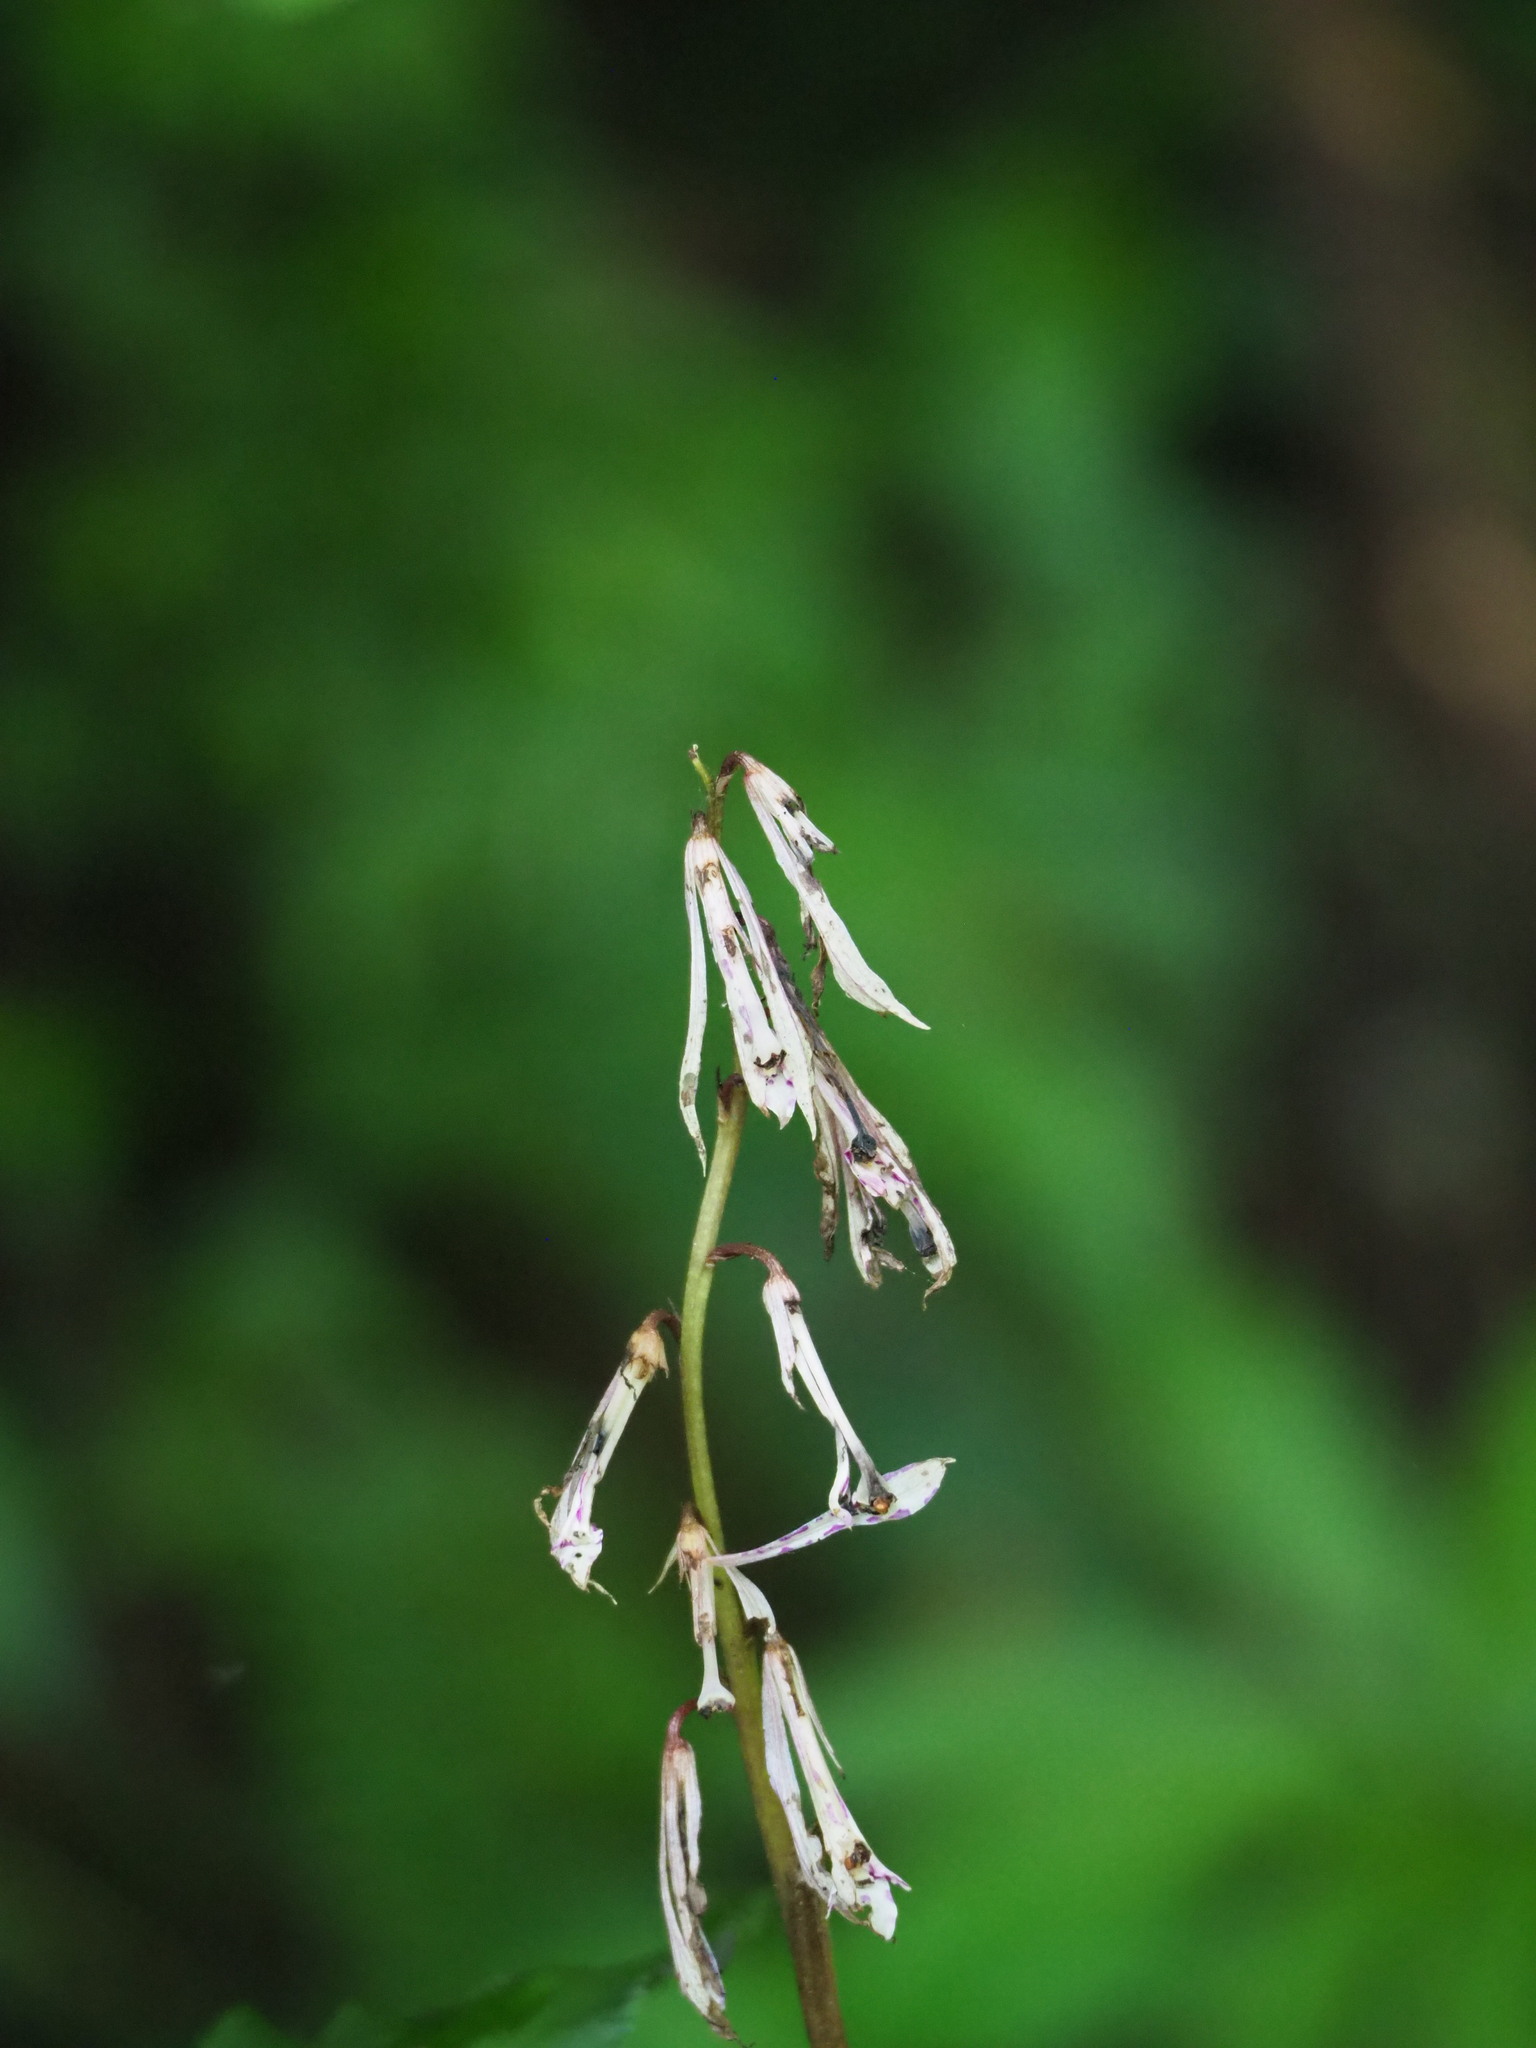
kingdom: Plantae
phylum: Tracheophyta
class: Liliopsida
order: Asparagales
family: Orchidaceae
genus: Cremastra
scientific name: Cremastra appendiculata
